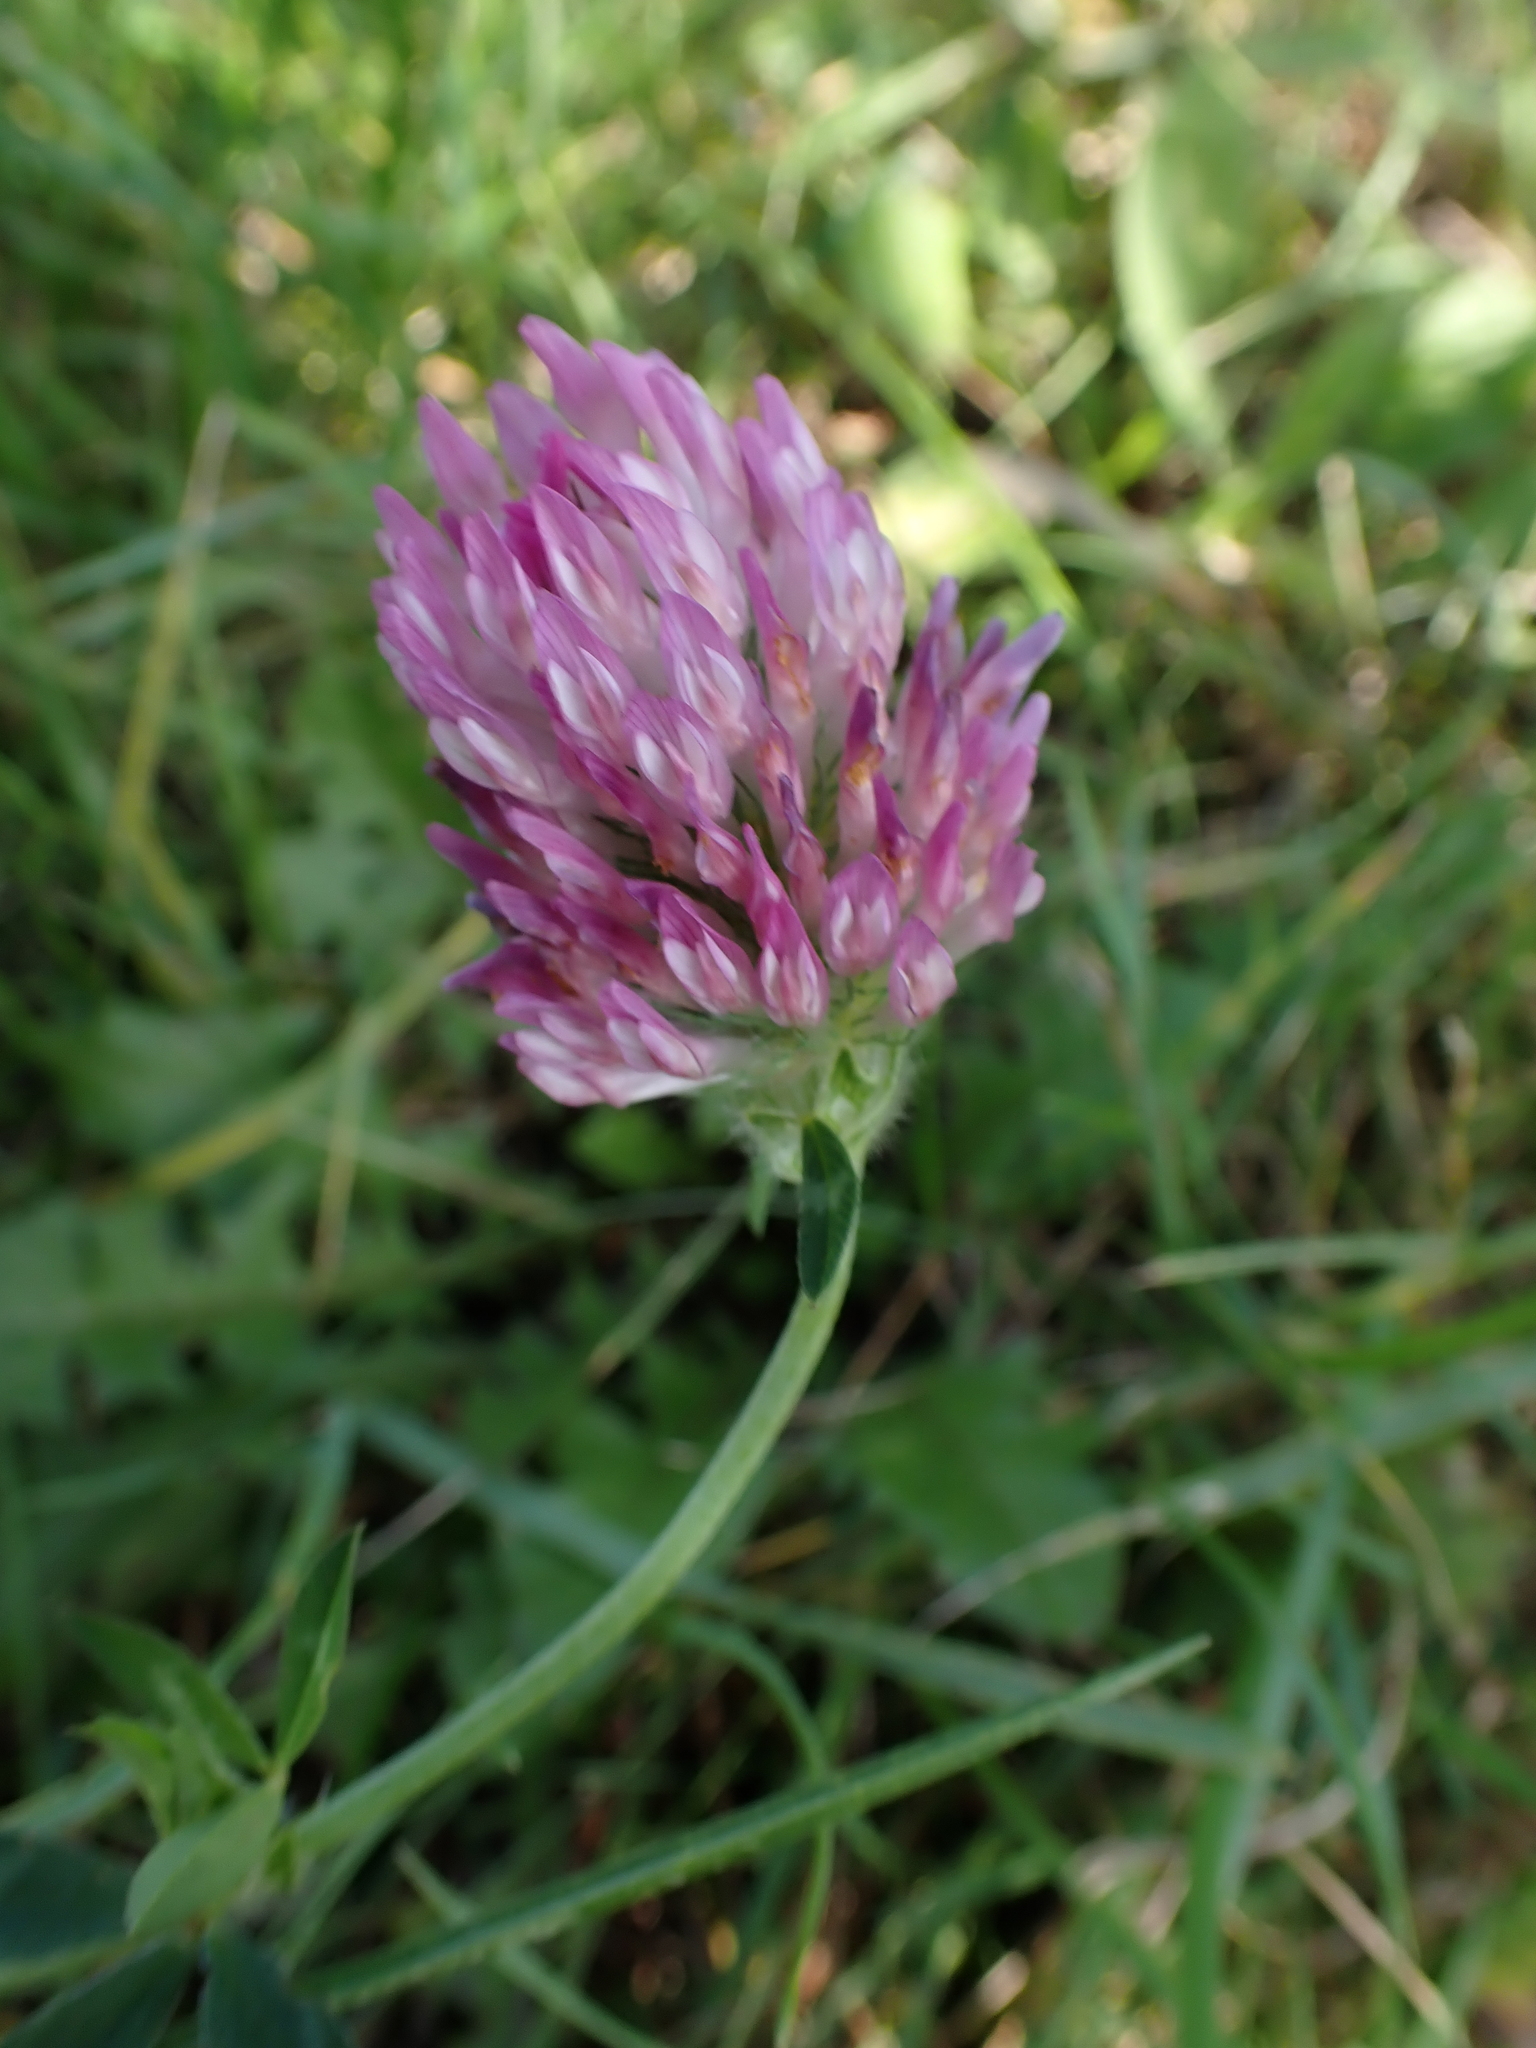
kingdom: Plantae
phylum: Tracheophyta
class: Magnoliopsida
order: Fabales
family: Fabaceae
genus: Trifolium
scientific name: Trifolium pratense
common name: Red clover
